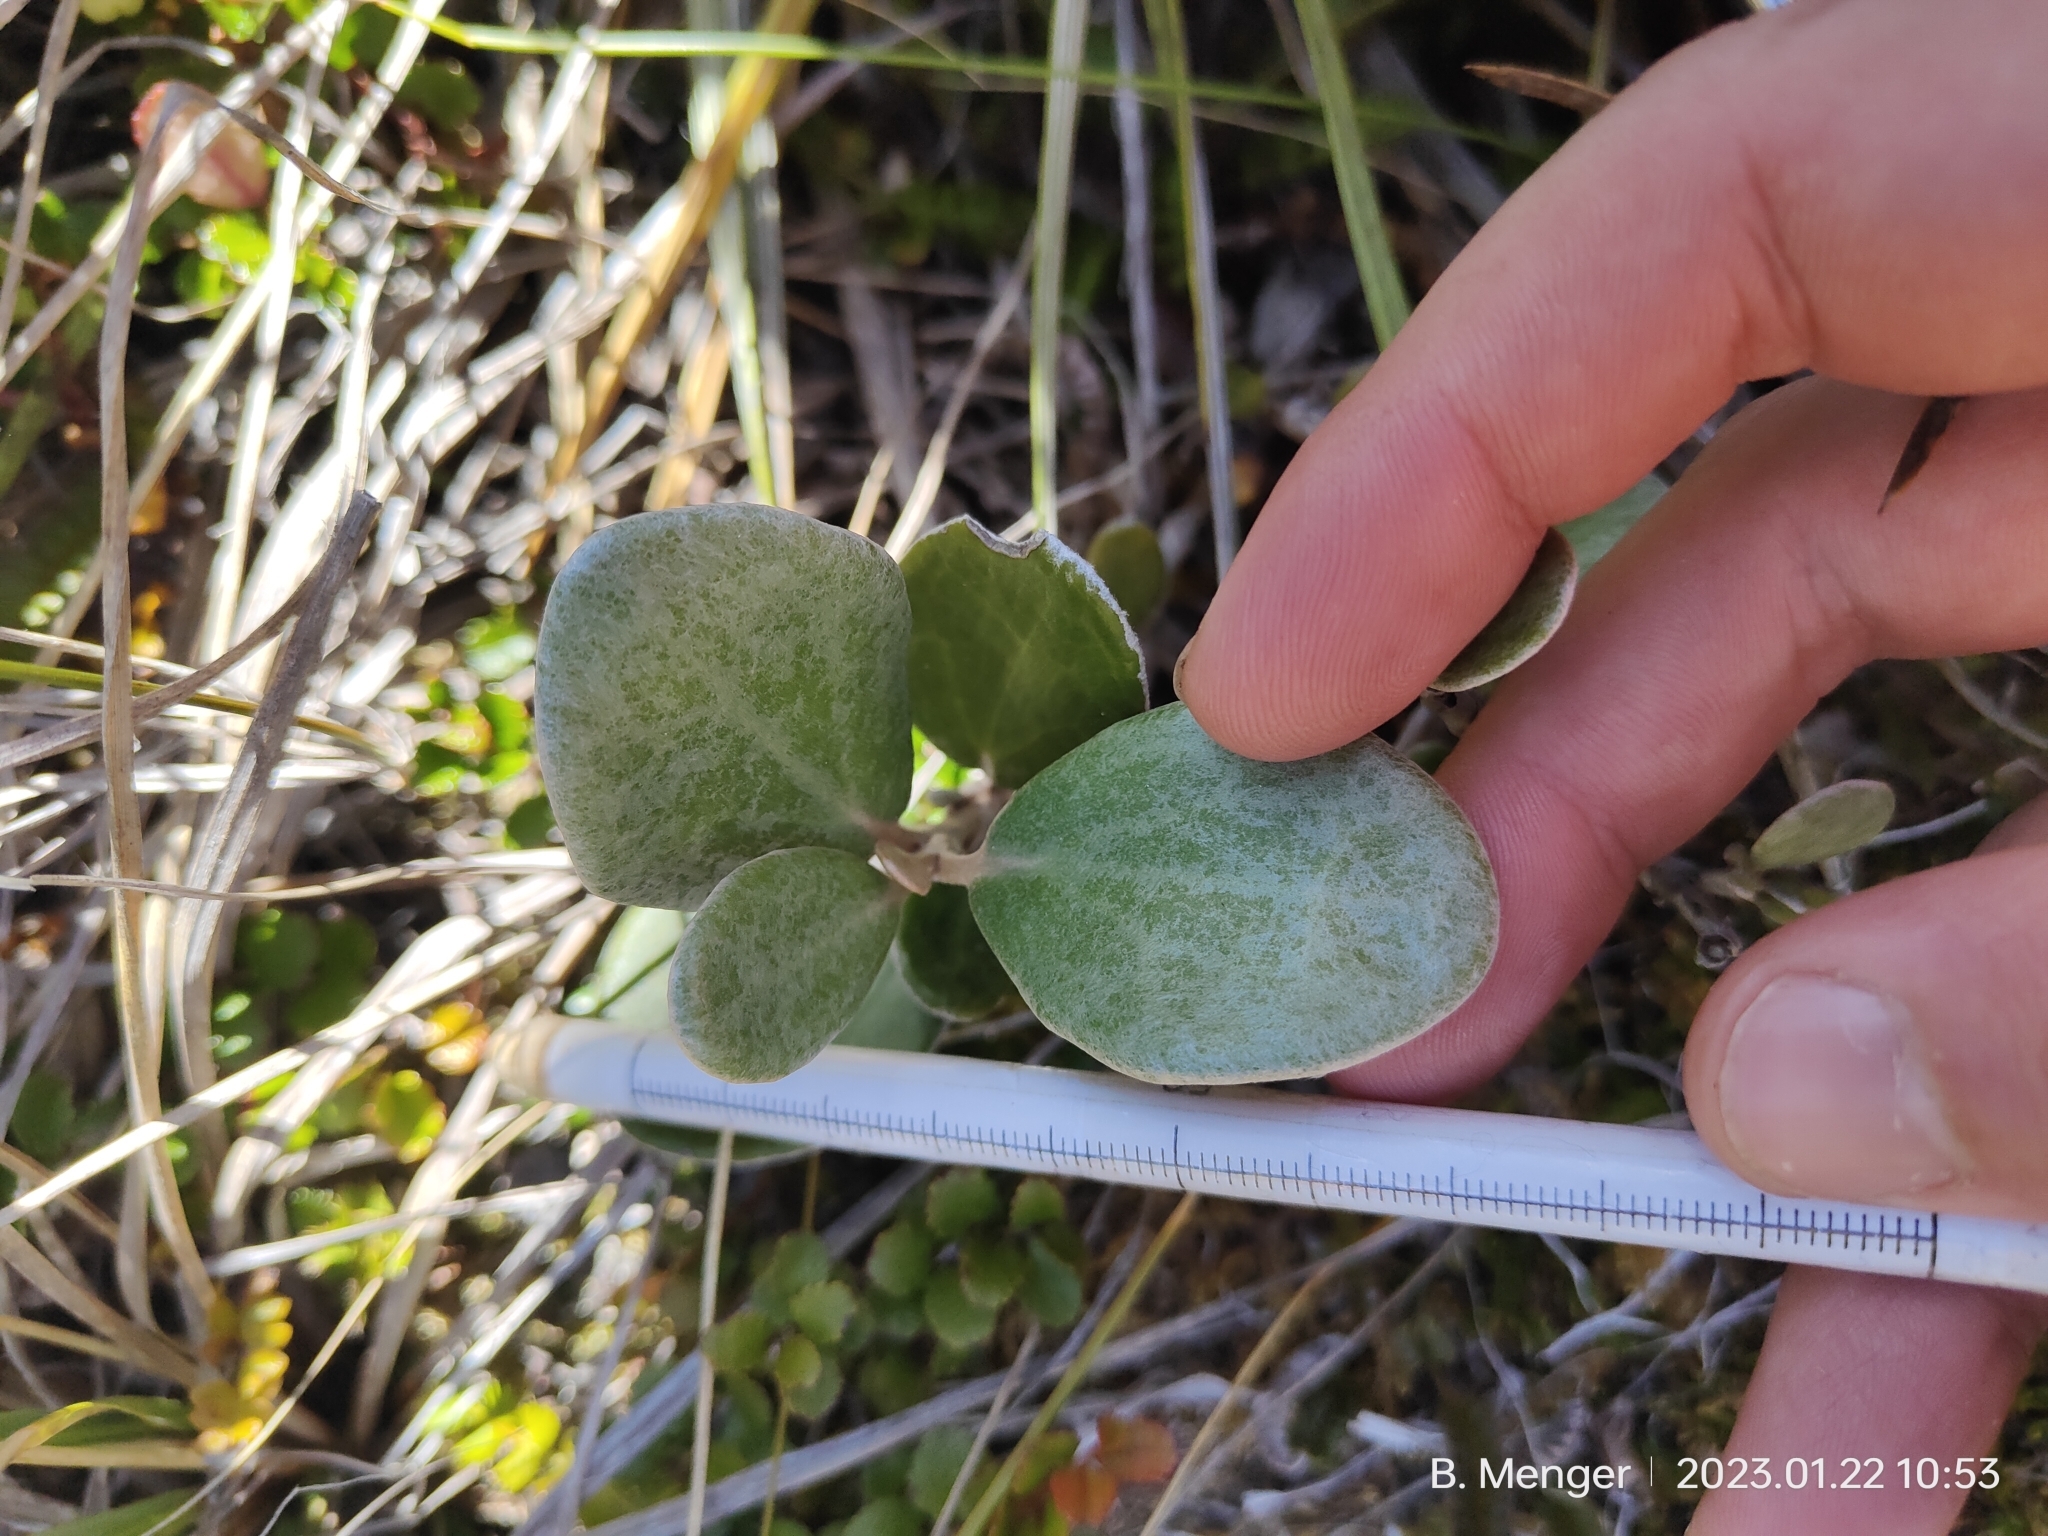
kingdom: Plantae
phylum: Tracheophyta
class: Magnoliopsida
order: Asterales
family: Asteraceae
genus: Brachyglottis
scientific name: Brachyglottis bidwillii
